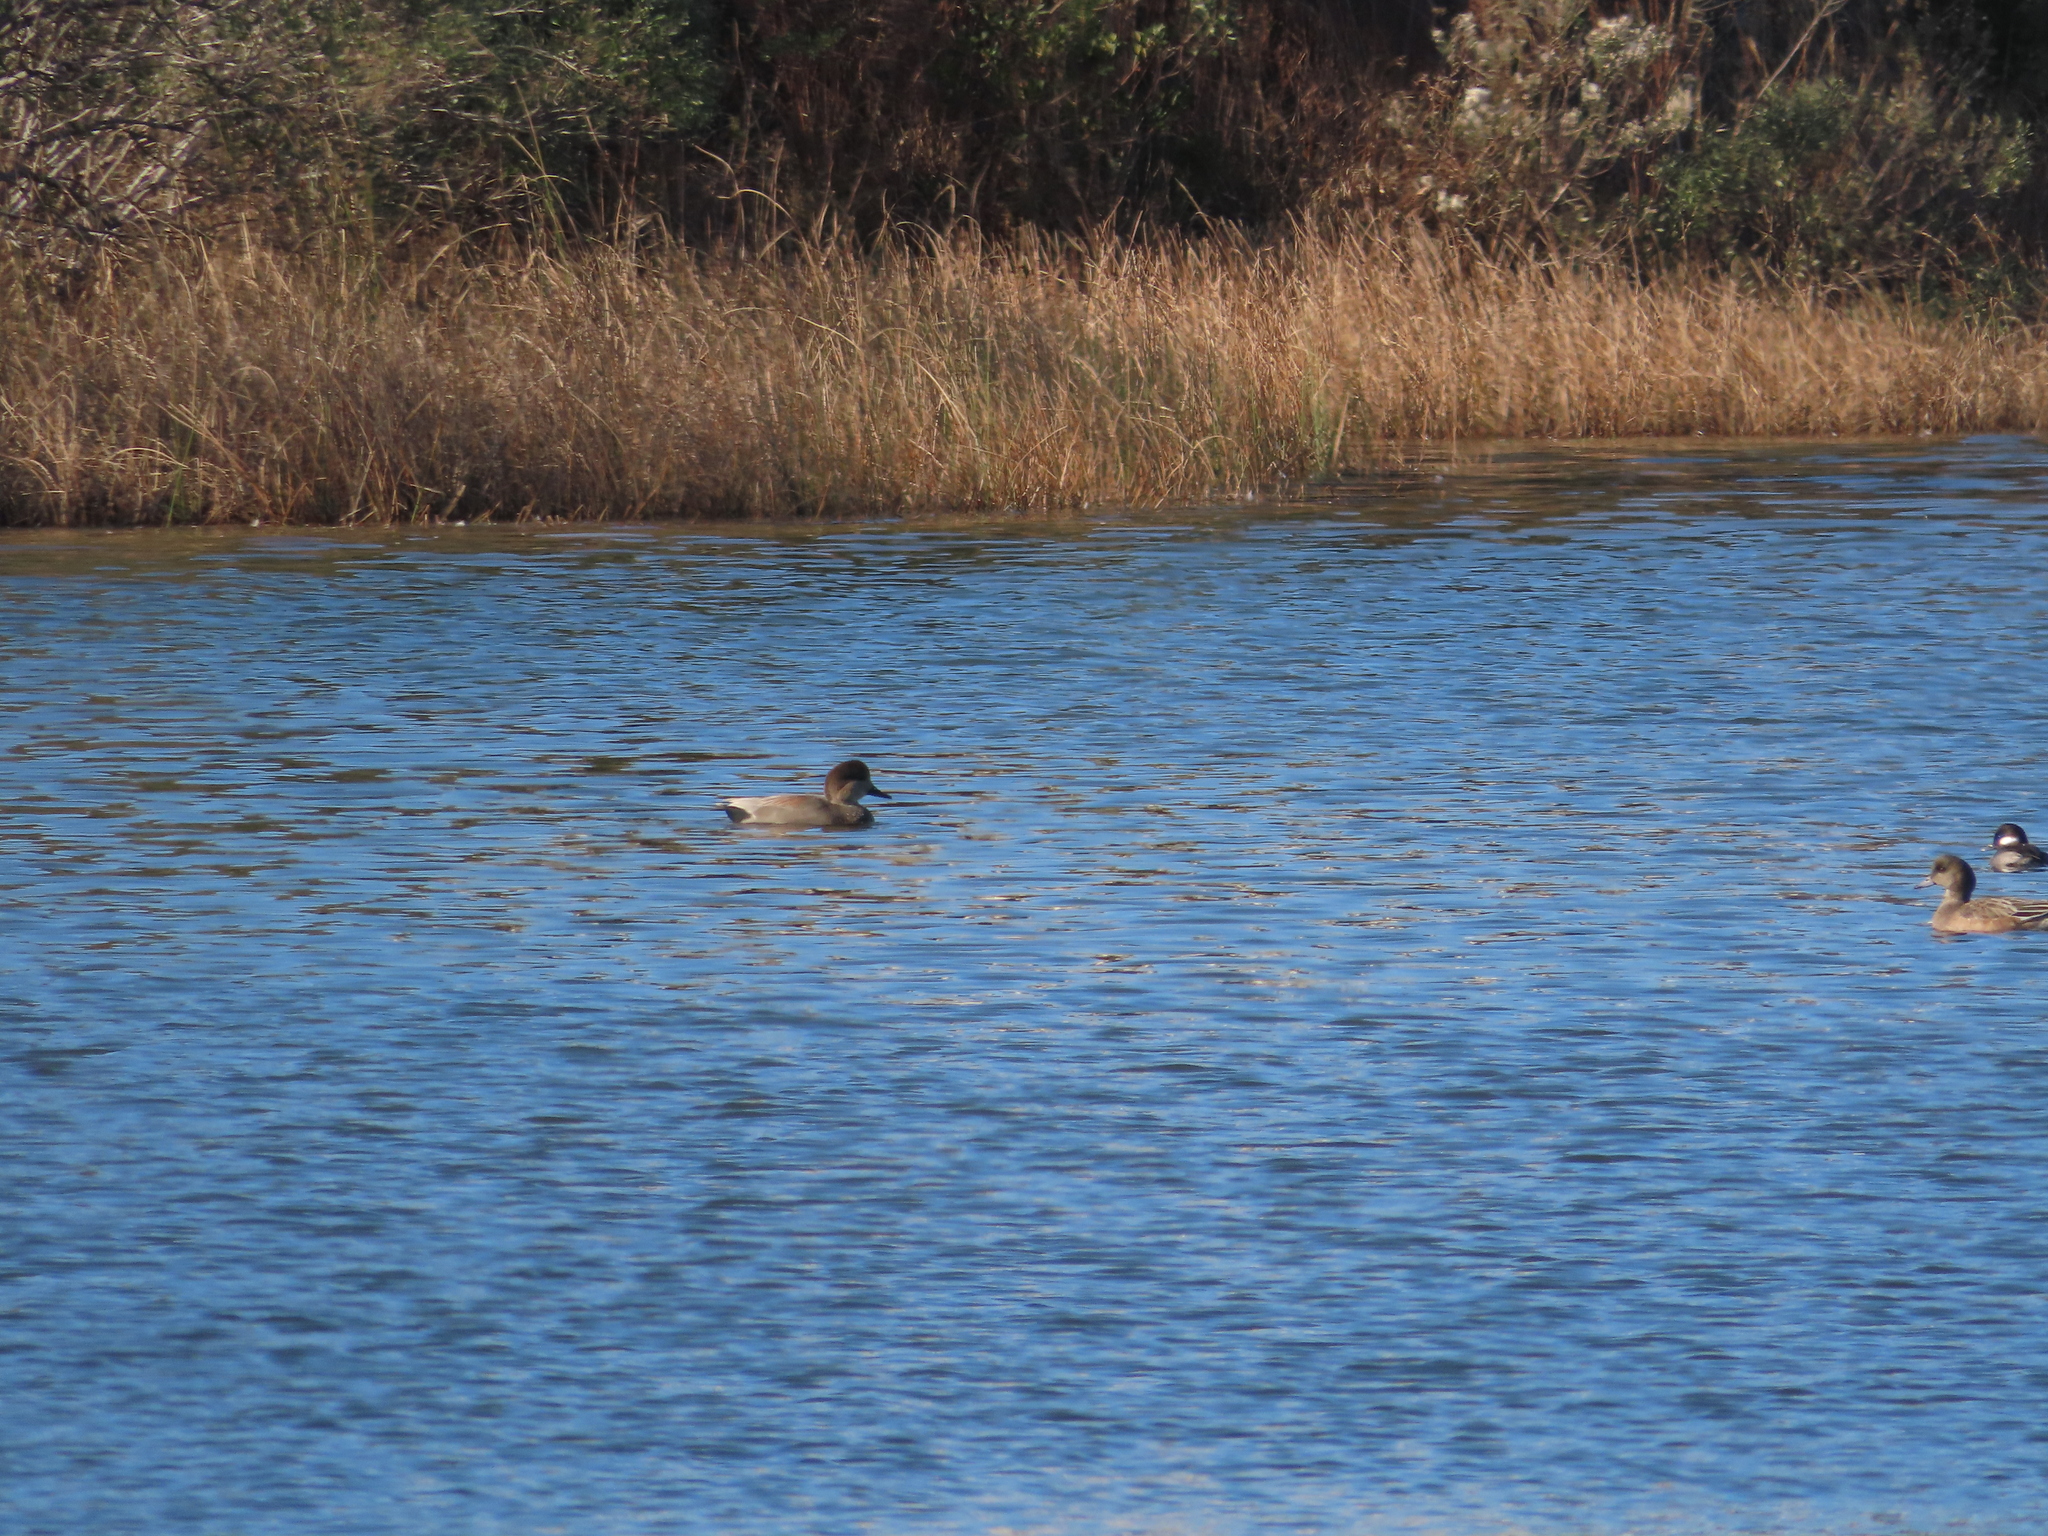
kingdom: Animalia
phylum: Chordata
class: Aves
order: Anseriformes
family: Anatidae
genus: Mareca
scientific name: Mareca strepera
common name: Gadwall
